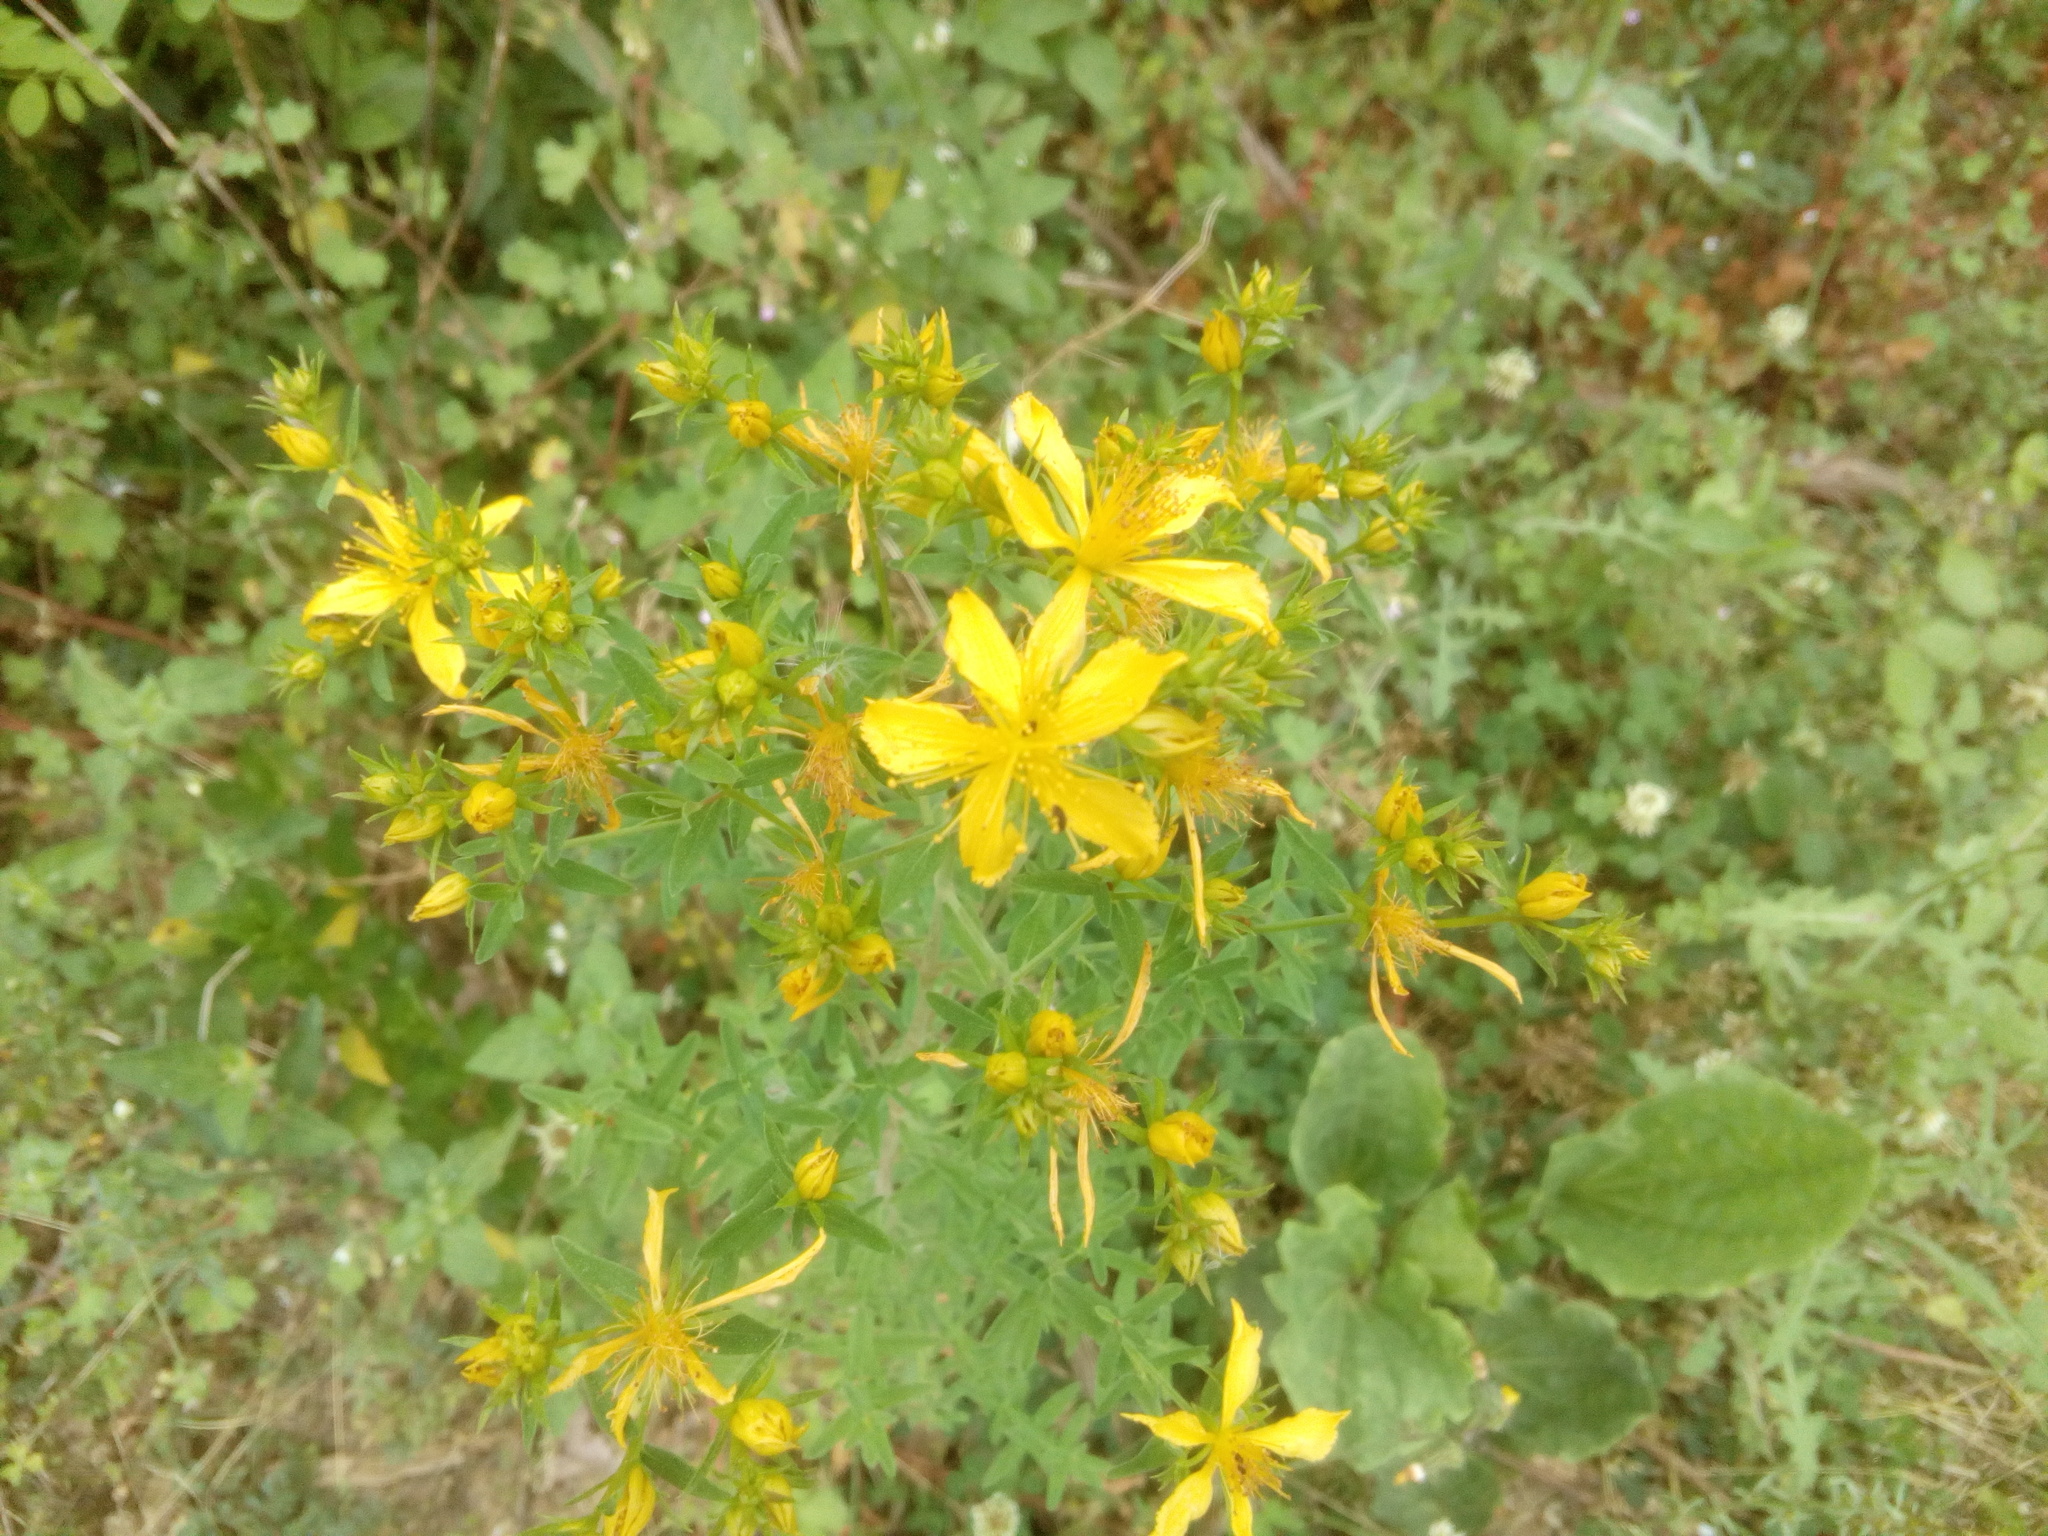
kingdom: Plantae
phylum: Tracheophyta
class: Magnoliopsida
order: Malpighiales
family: Hypericaceae
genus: Hypericum
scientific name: Hypericum perforatum
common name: Common st. johnswort
